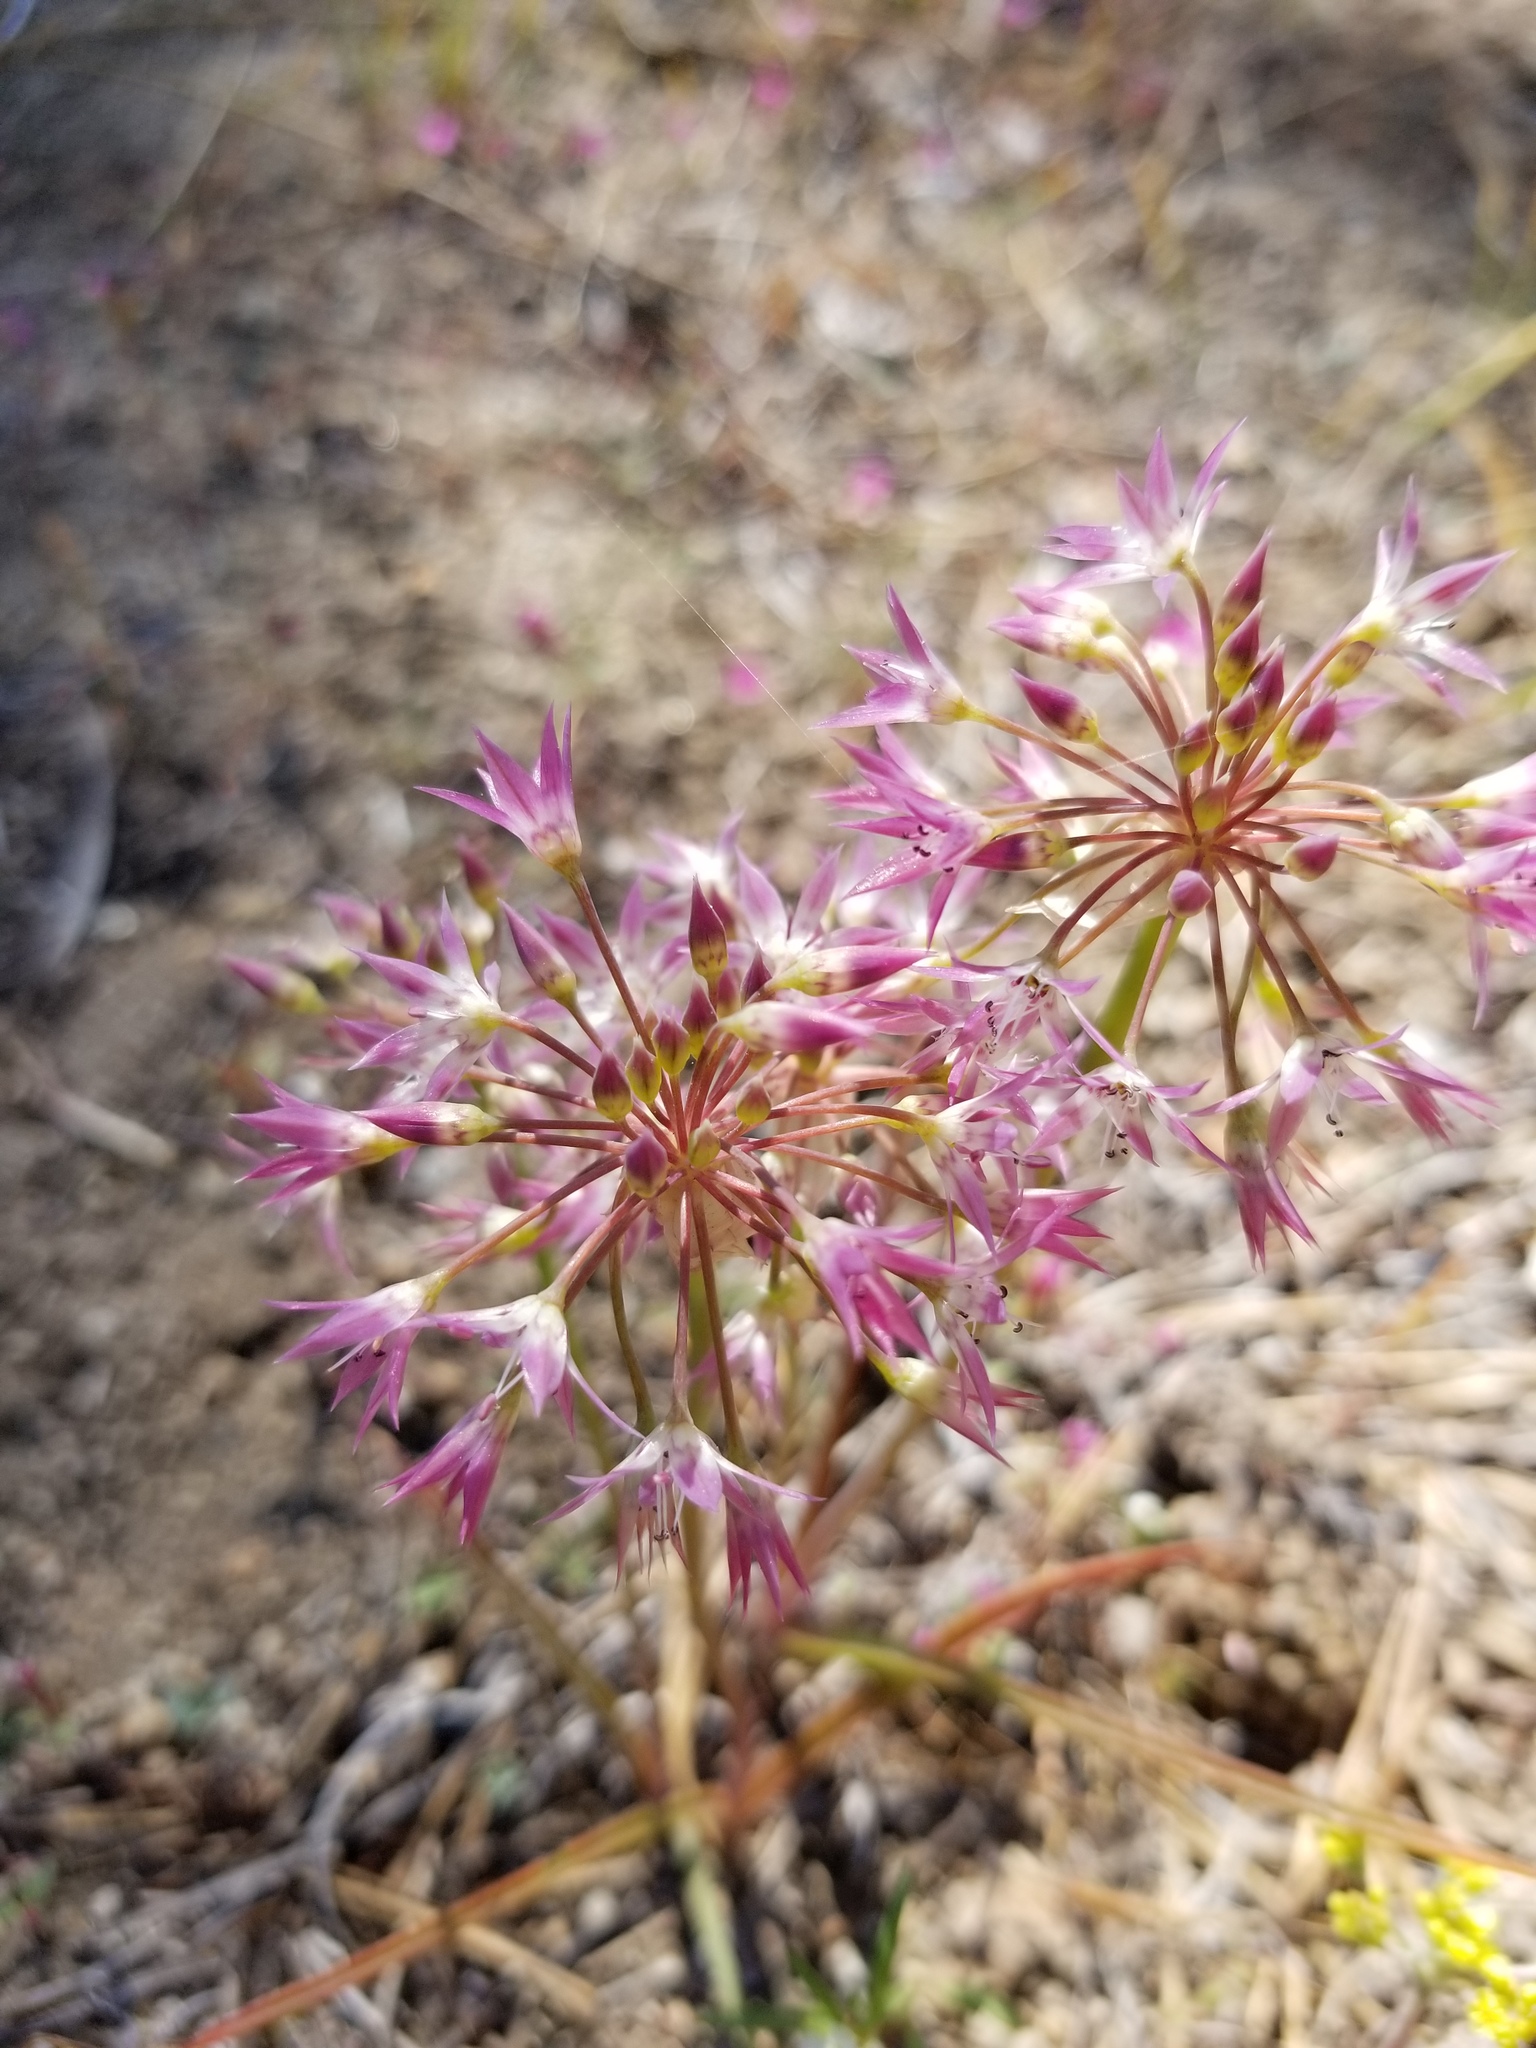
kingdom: Plantae
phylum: Tracheophyta
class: Liliopsida
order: Asparagales
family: Amaryllidaceae
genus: Allium
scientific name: Allium campanulatum
